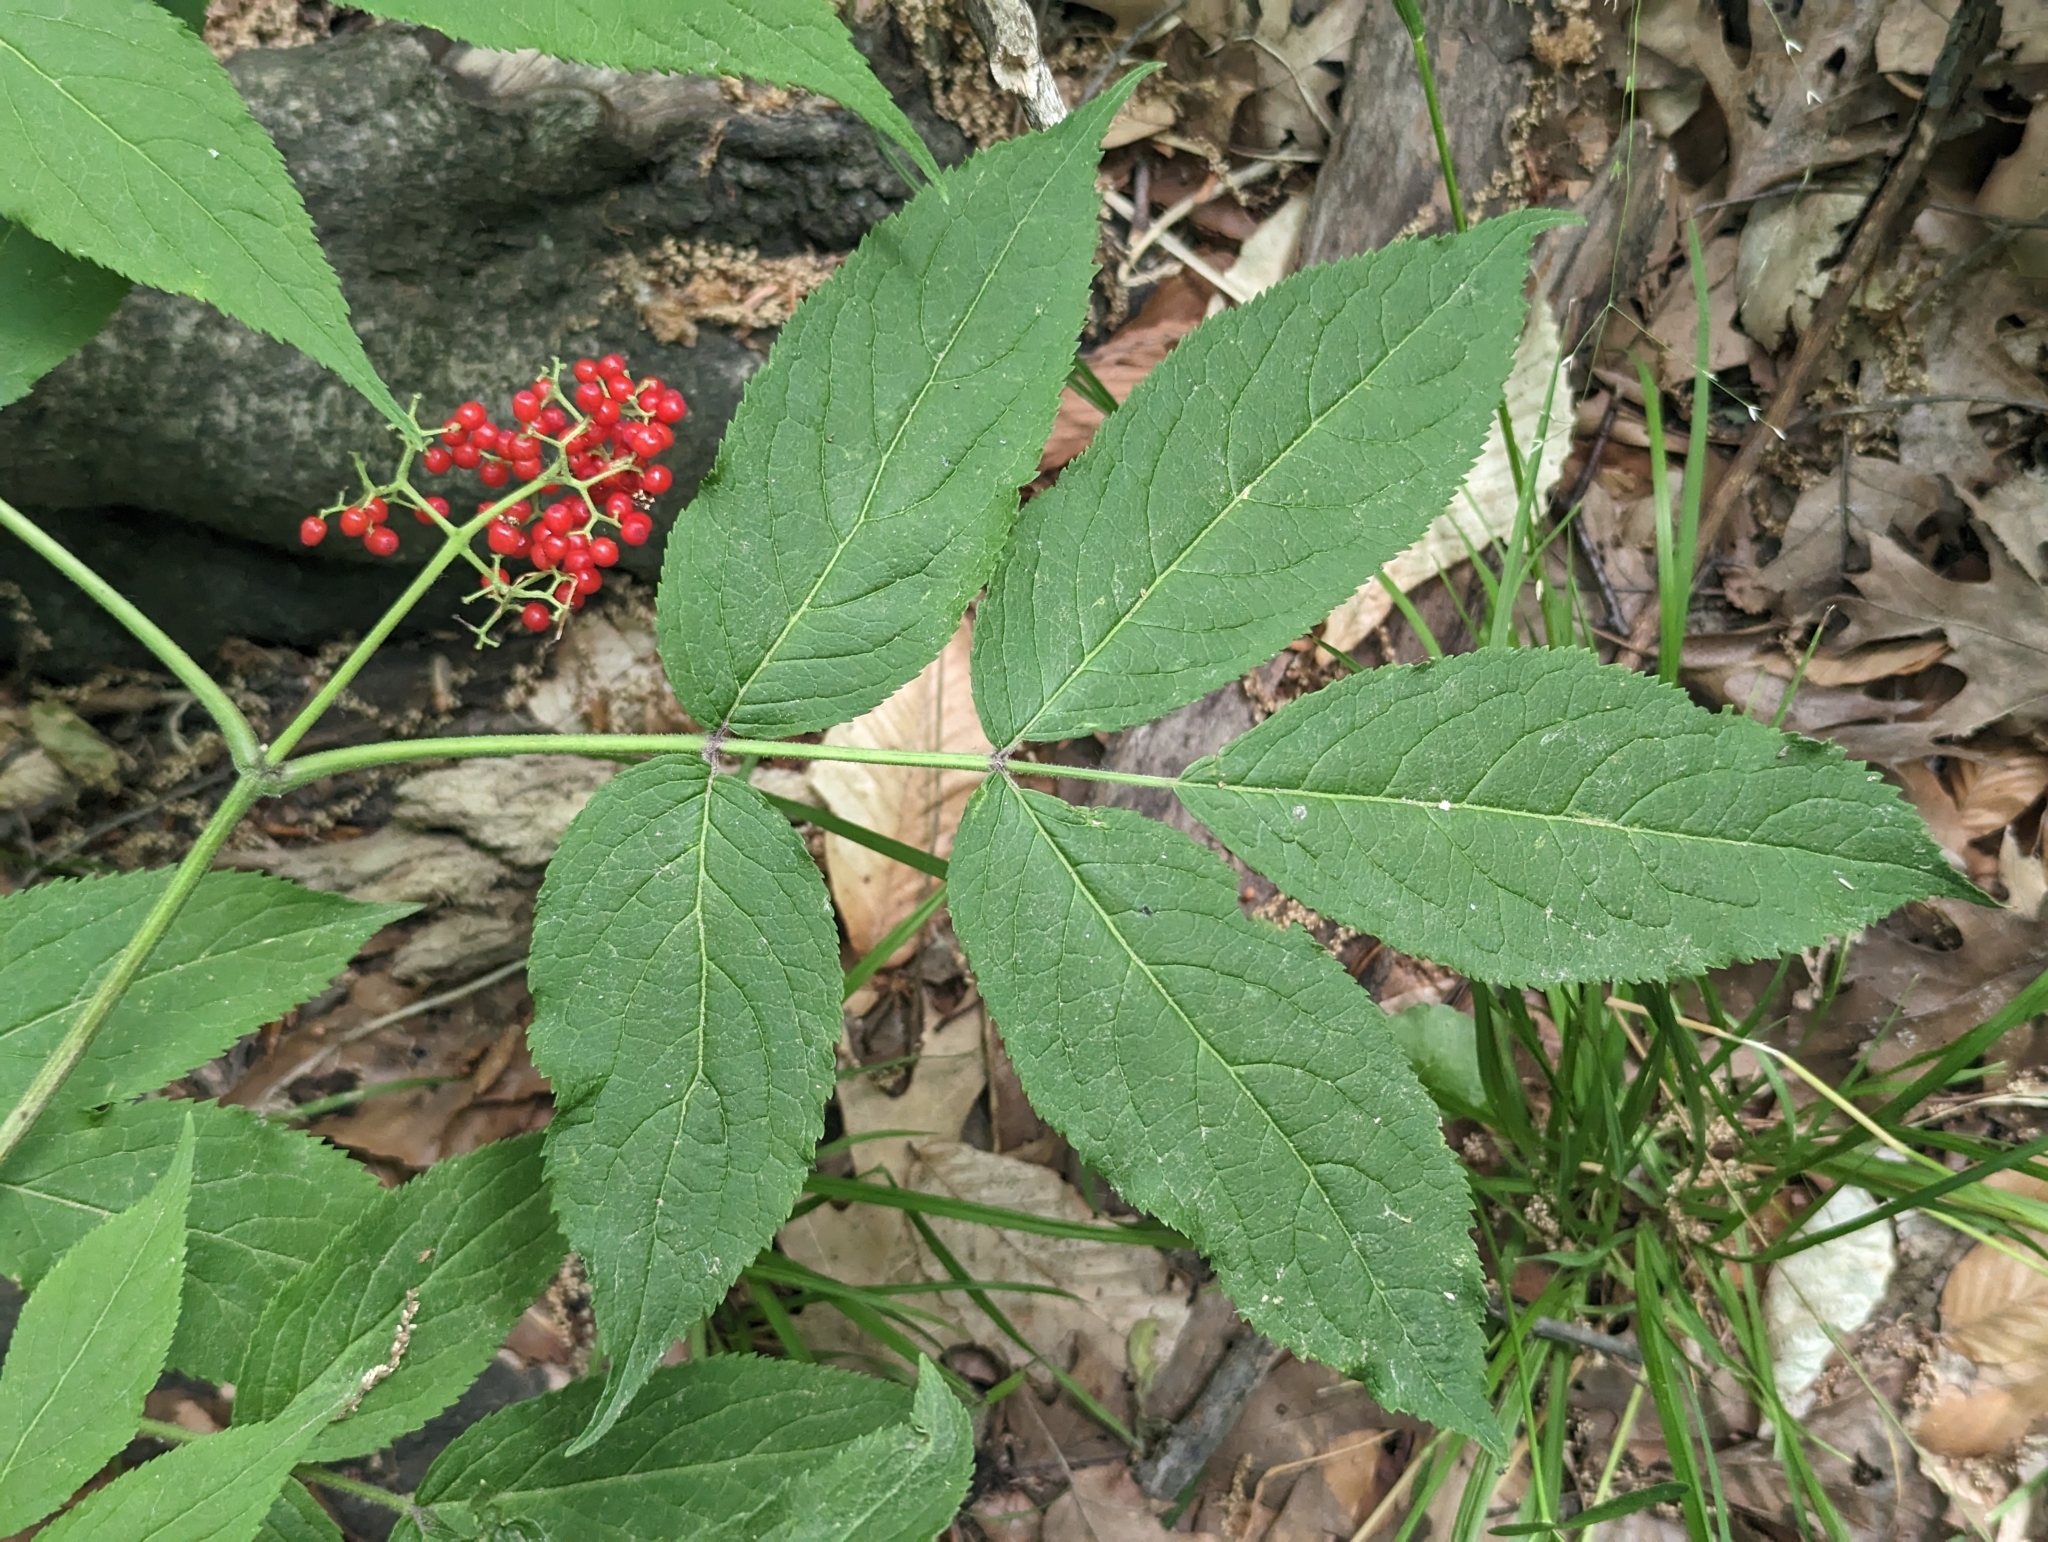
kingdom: Plantae
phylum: Tracheophyta
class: Magnoliopsida
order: Dipsacales
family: Viburnaceae
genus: Sambucus
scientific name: Sambucus racemosa
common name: Red-berried elder
